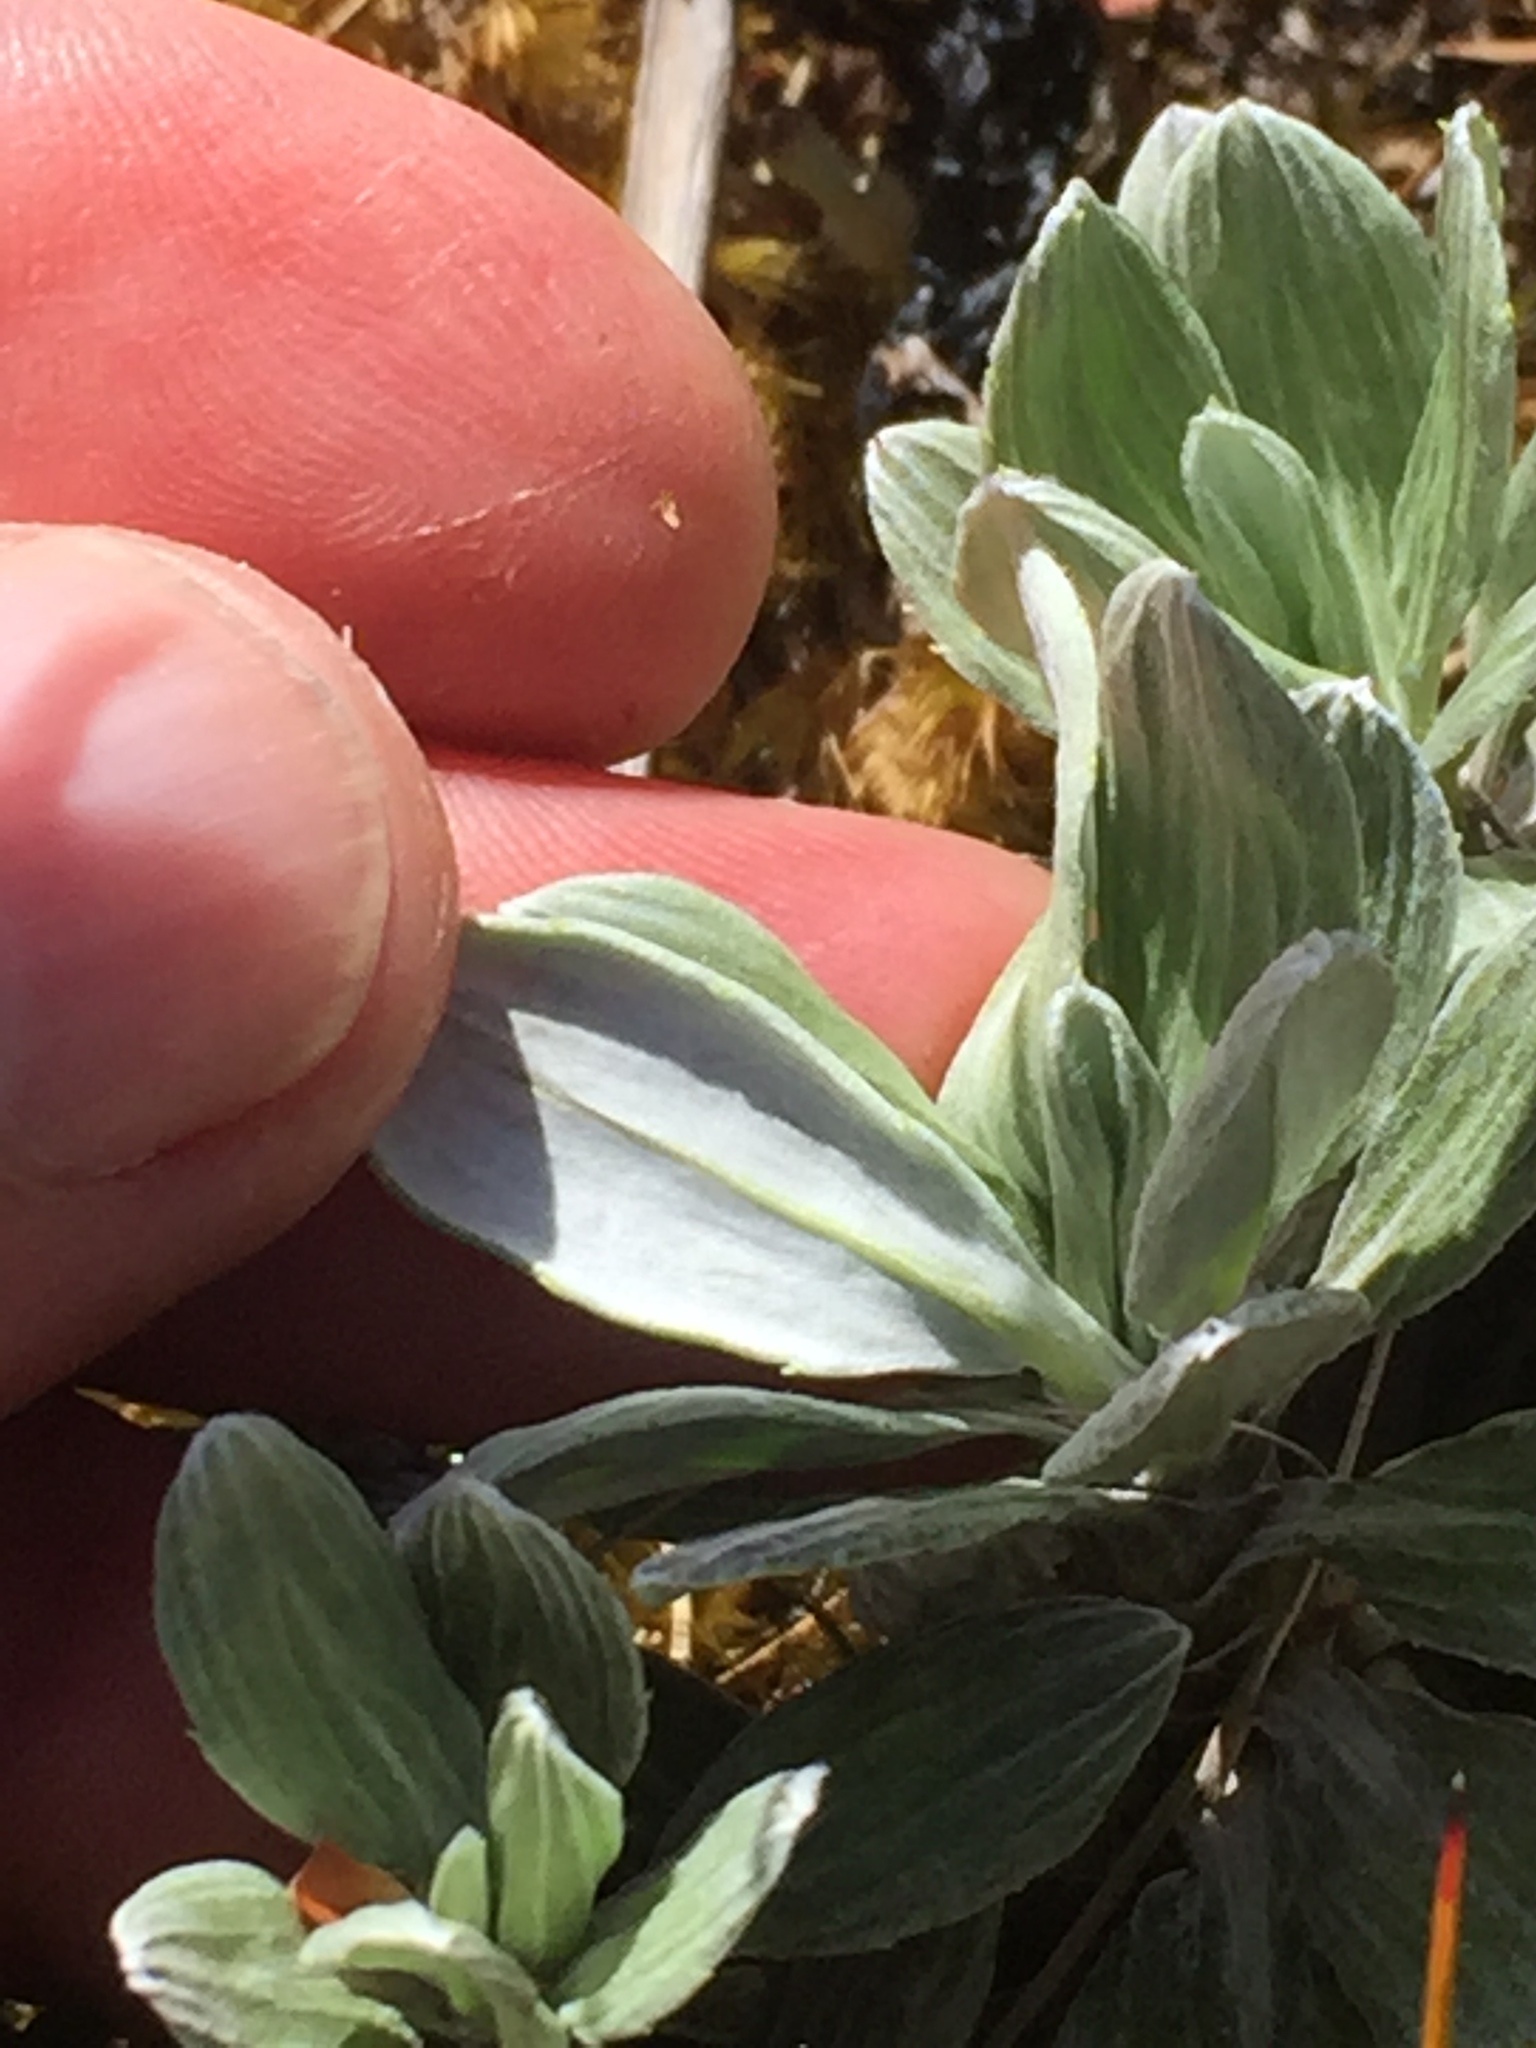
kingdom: Plantae
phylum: Tracheophyta
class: Magnoliopsida
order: Asterales
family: Asteraceae
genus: Celmisia
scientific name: Celmisia discolor
